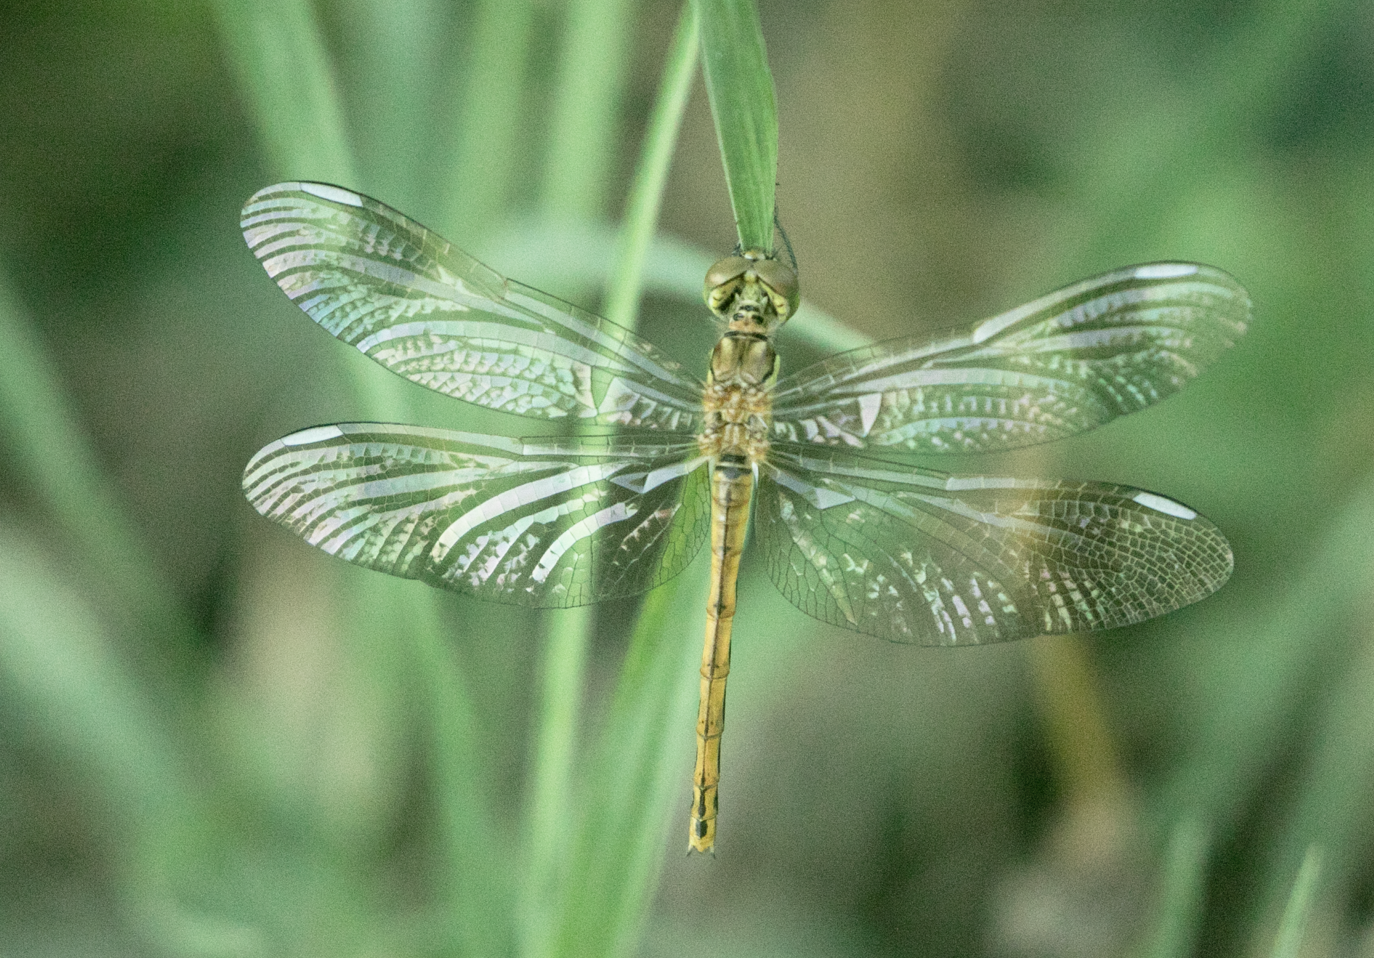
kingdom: Animalia
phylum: Arthropoda
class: Insecta
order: Odonata
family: Libellulidae
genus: Sympetrum
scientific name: Sympetrum pedemontanum
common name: Banded darter
